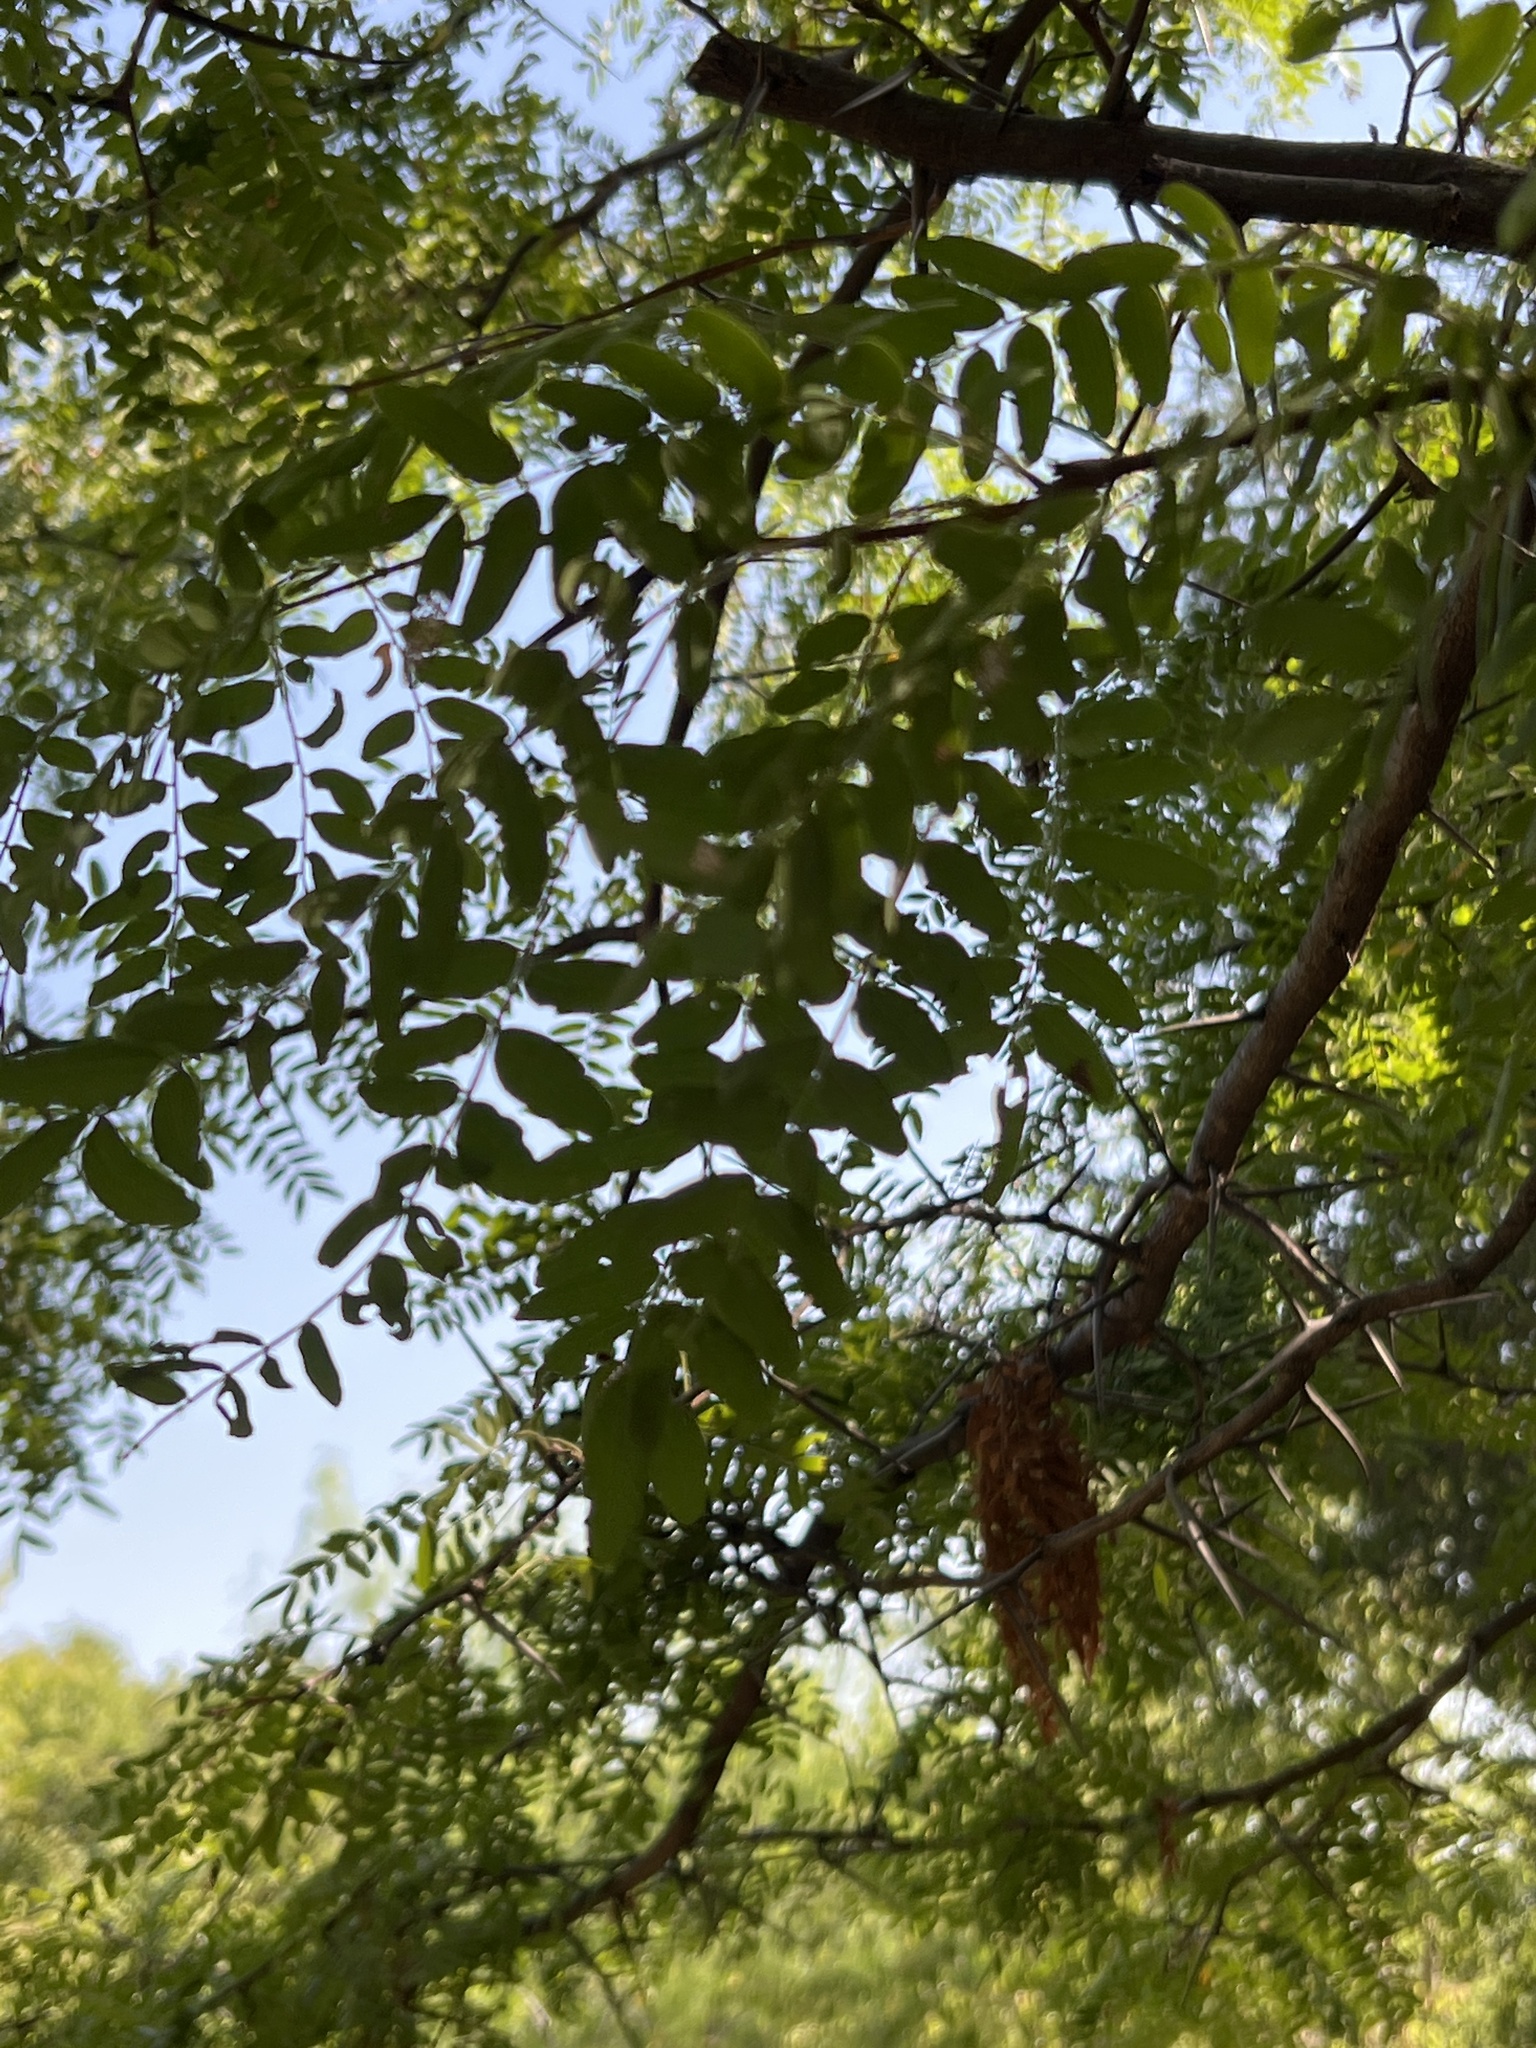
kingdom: Plantae
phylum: Tracheophyta
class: Magnoliopsida
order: Fabales
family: Fabaceae
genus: Gleditsia
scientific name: Gleditsia triacanthos
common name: Common honeylocust
